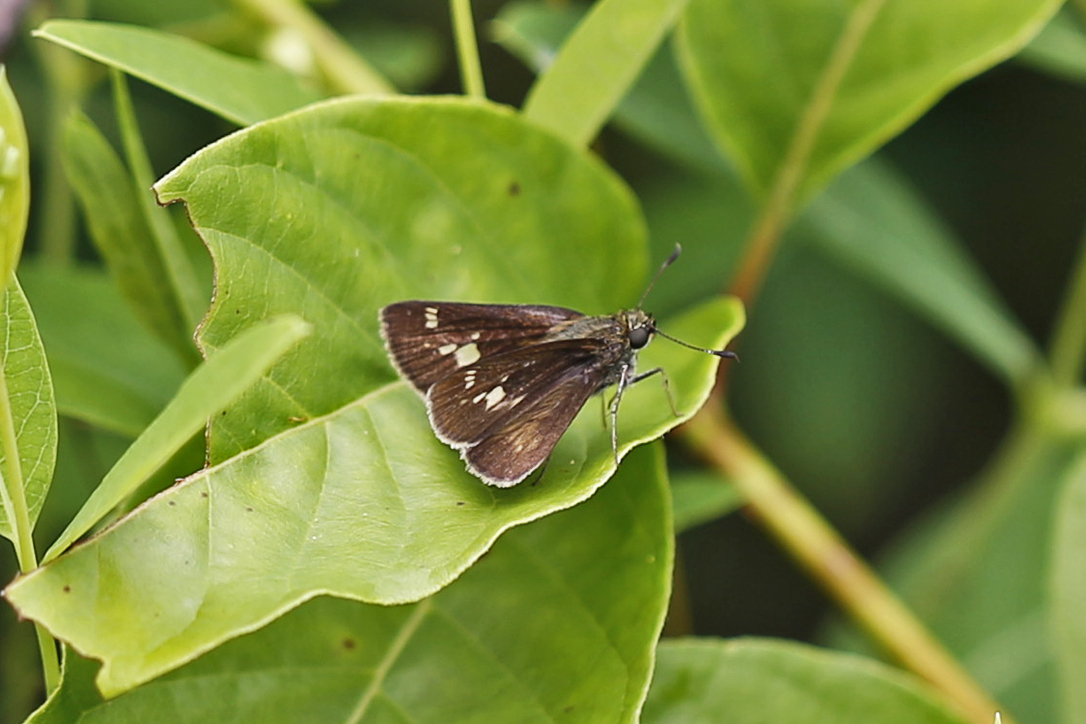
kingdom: Animalia
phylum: Arthropoda
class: Insecta
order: Lepidoptera
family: Hesperiidae
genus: Vernia
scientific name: Vernia verna
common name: Little glassywing
